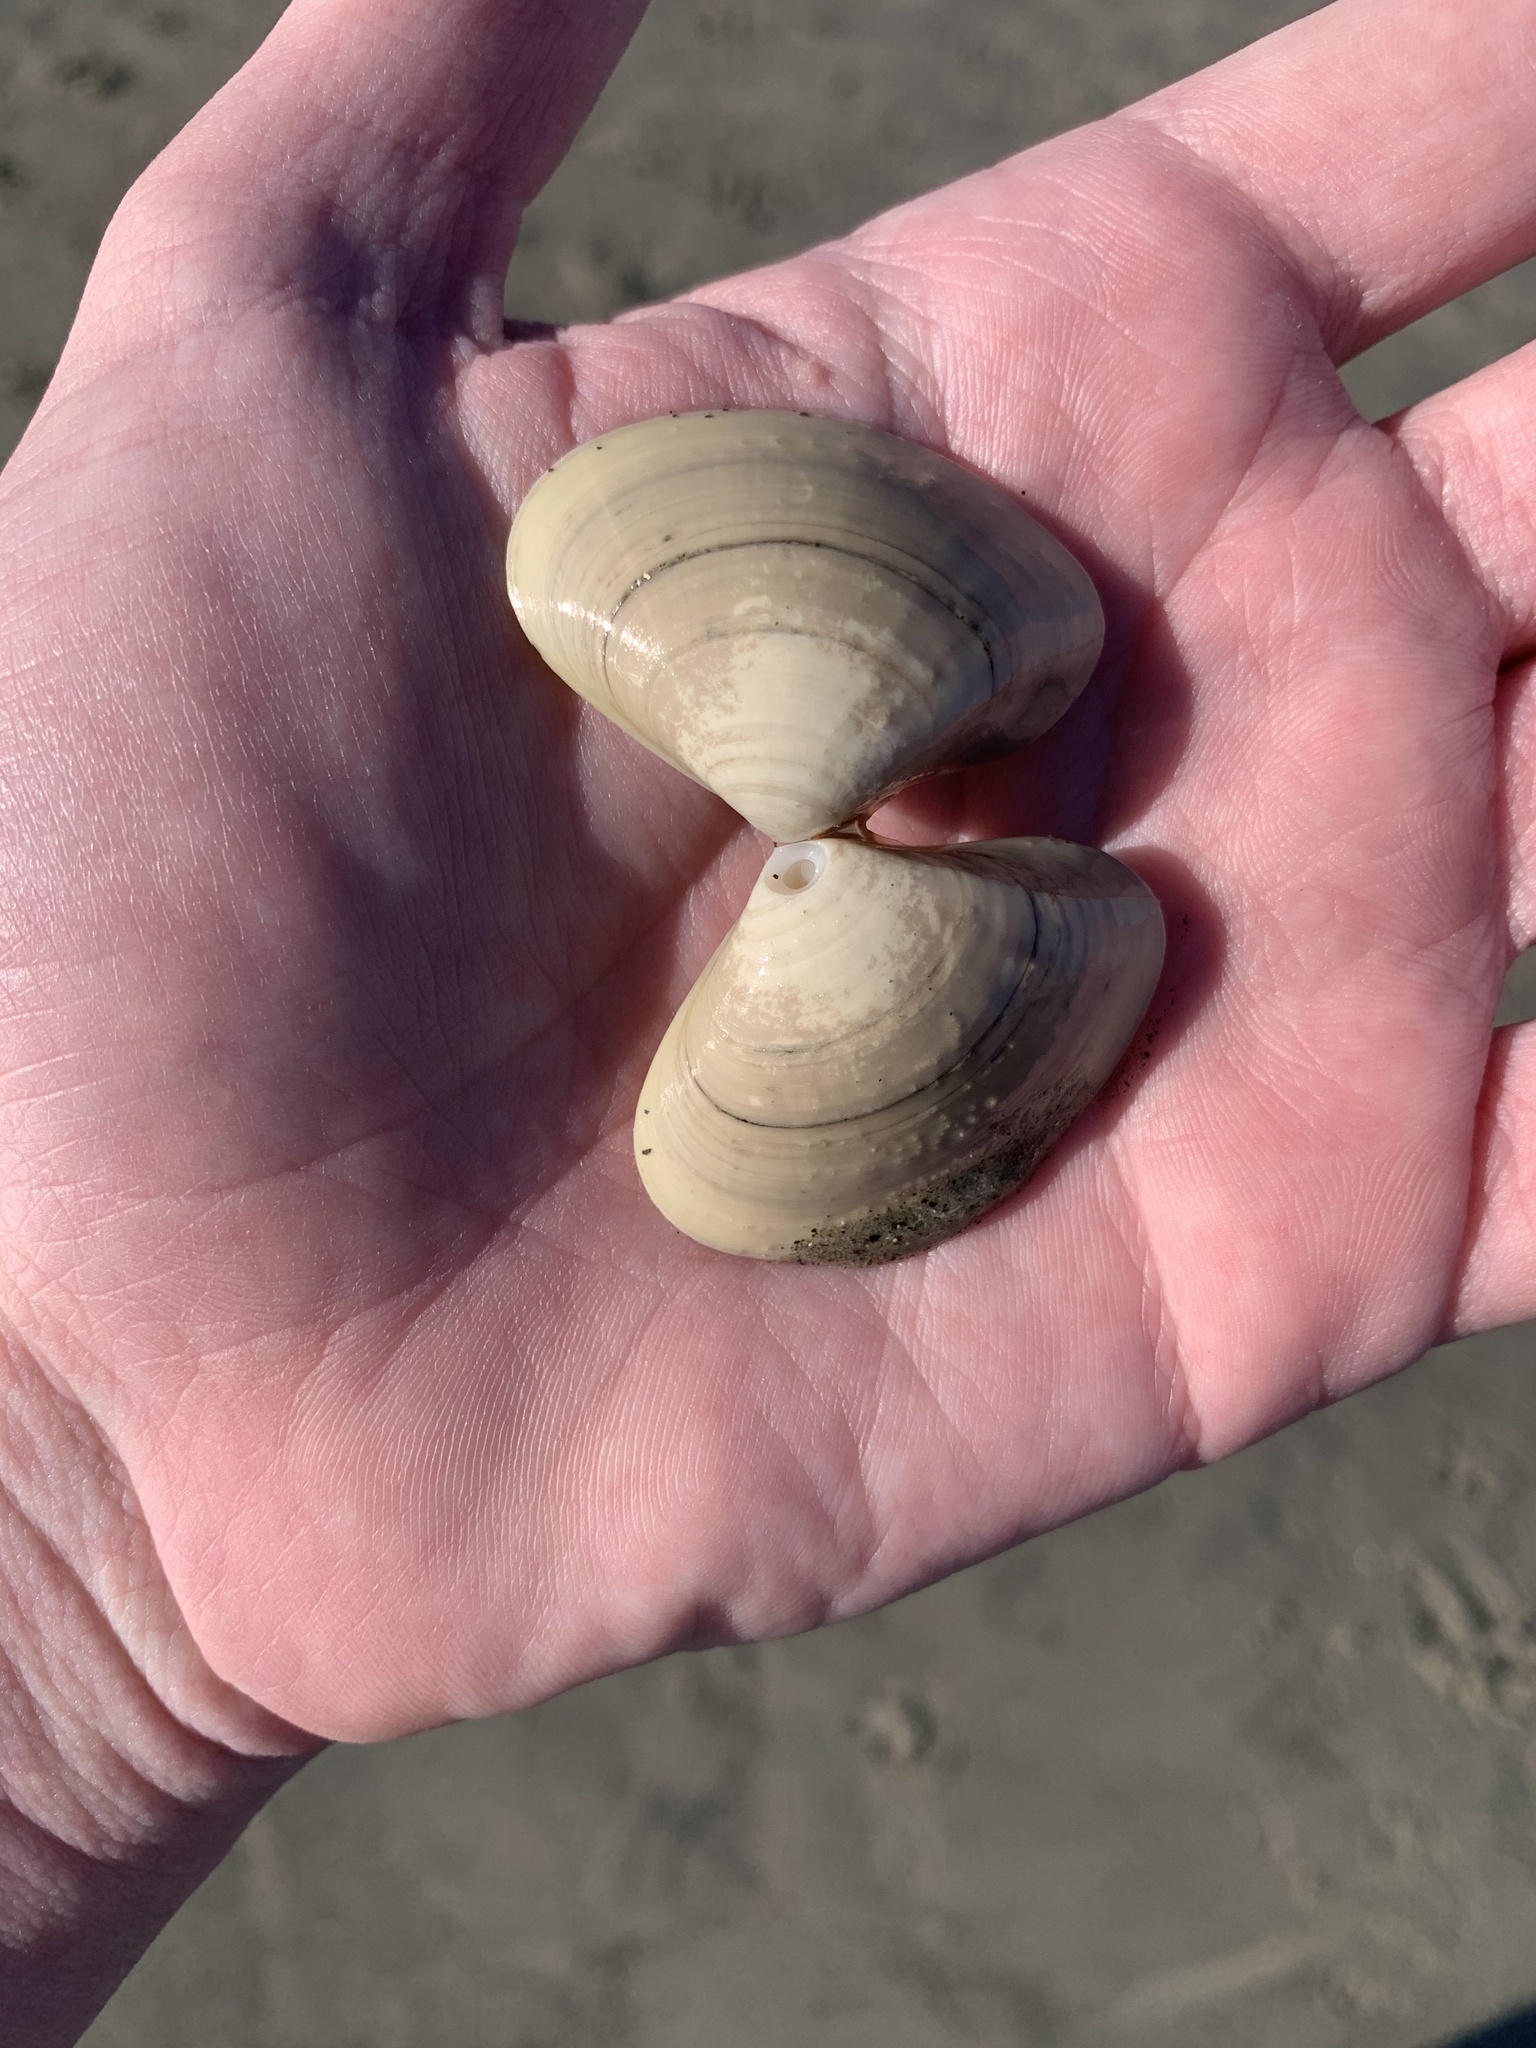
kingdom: Animalia
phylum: Mollusca
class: Bivalvia
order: Venerida
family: Veneridae
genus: Tivela
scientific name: Tivela stultorum
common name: Pismo clam
